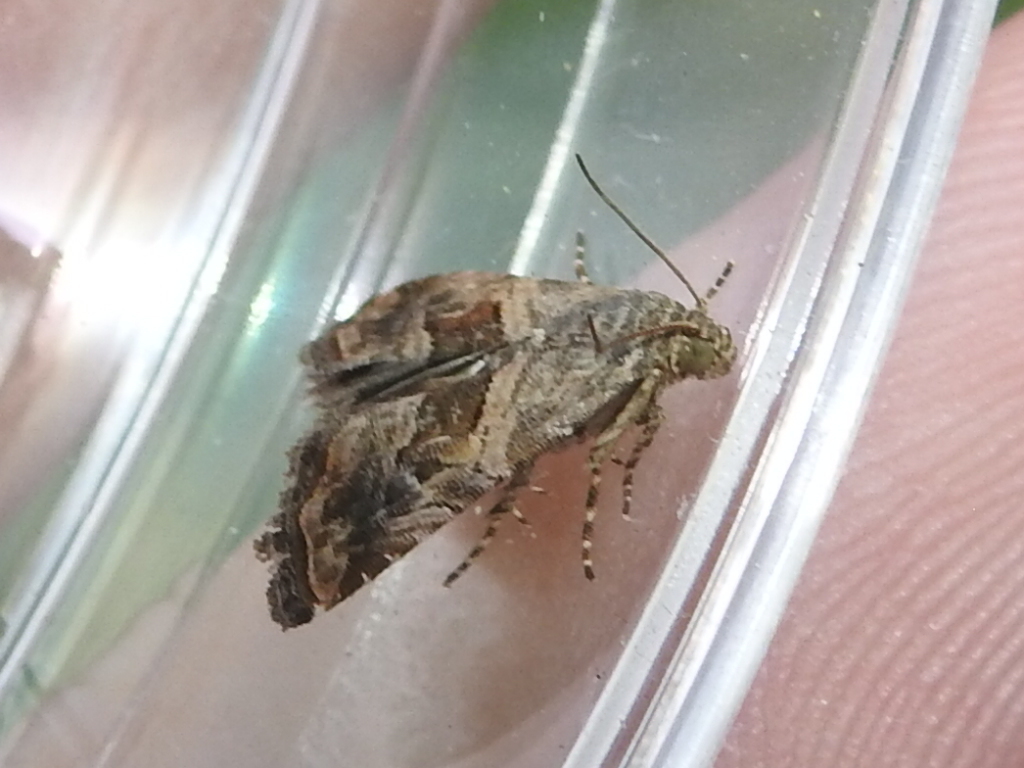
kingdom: Animalia
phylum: Arthropoda
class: Insecta
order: Lepidoptera
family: Noctuidae
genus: Tripudia
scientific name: Tripudia quadrifera
